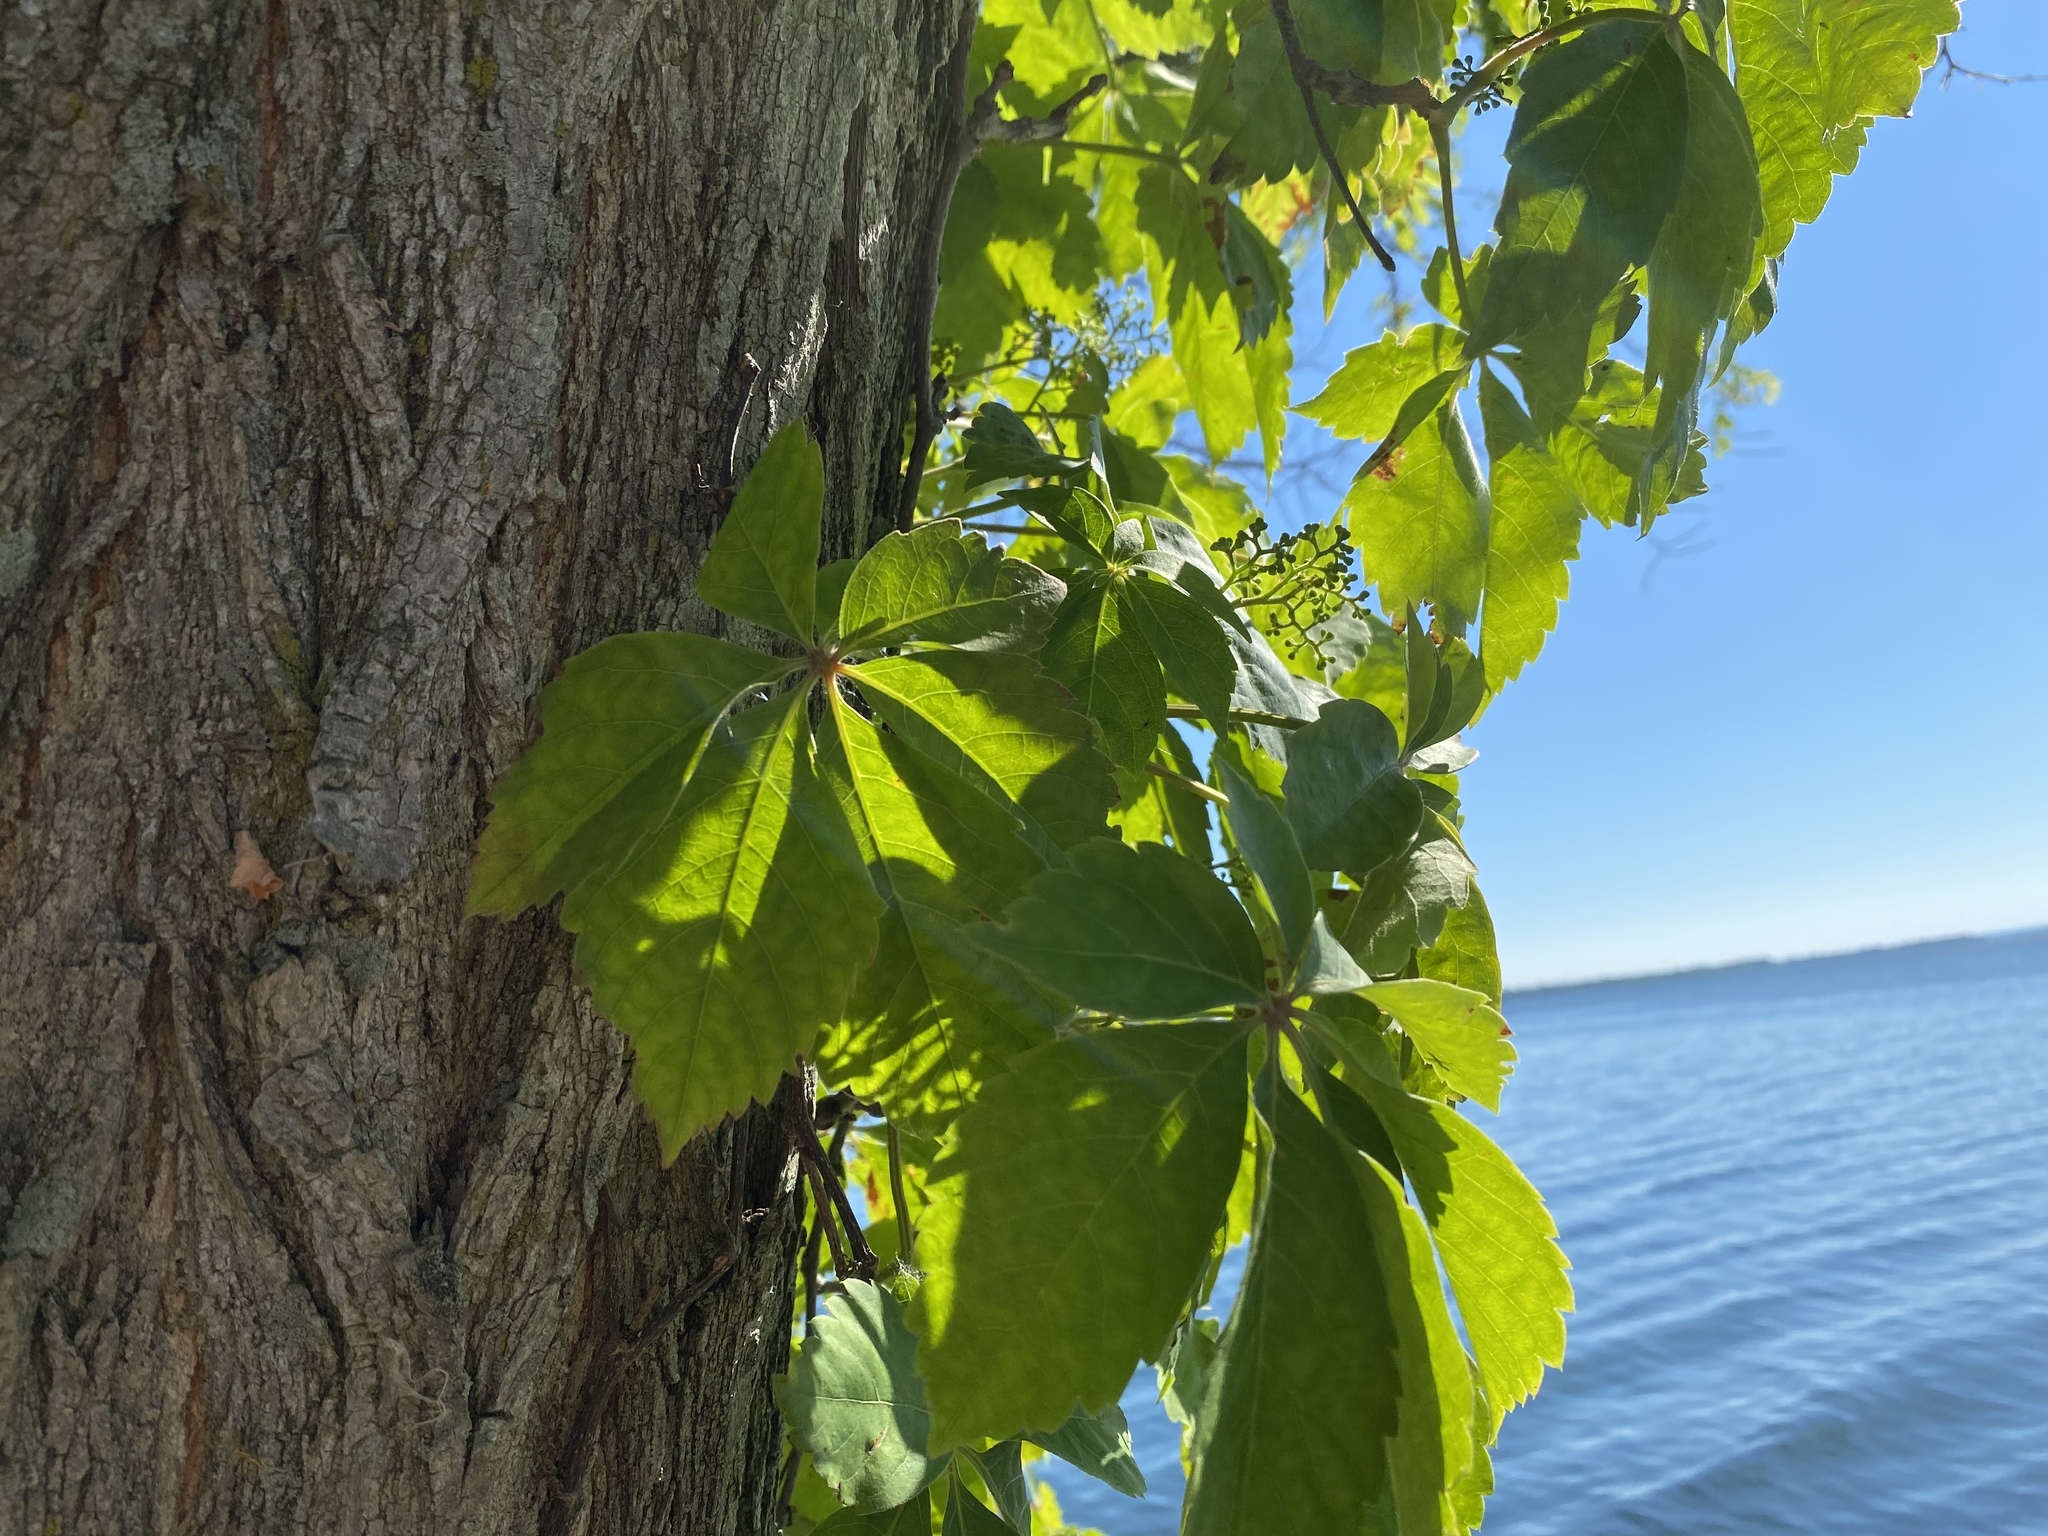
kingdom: Plantae
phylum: Tracheophyta
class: Magnoliopsida
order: Vitales
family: Vitaceae
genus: Parthenocissus
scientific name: Parthenocissus quinquefolia
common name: Virginia-creeper
